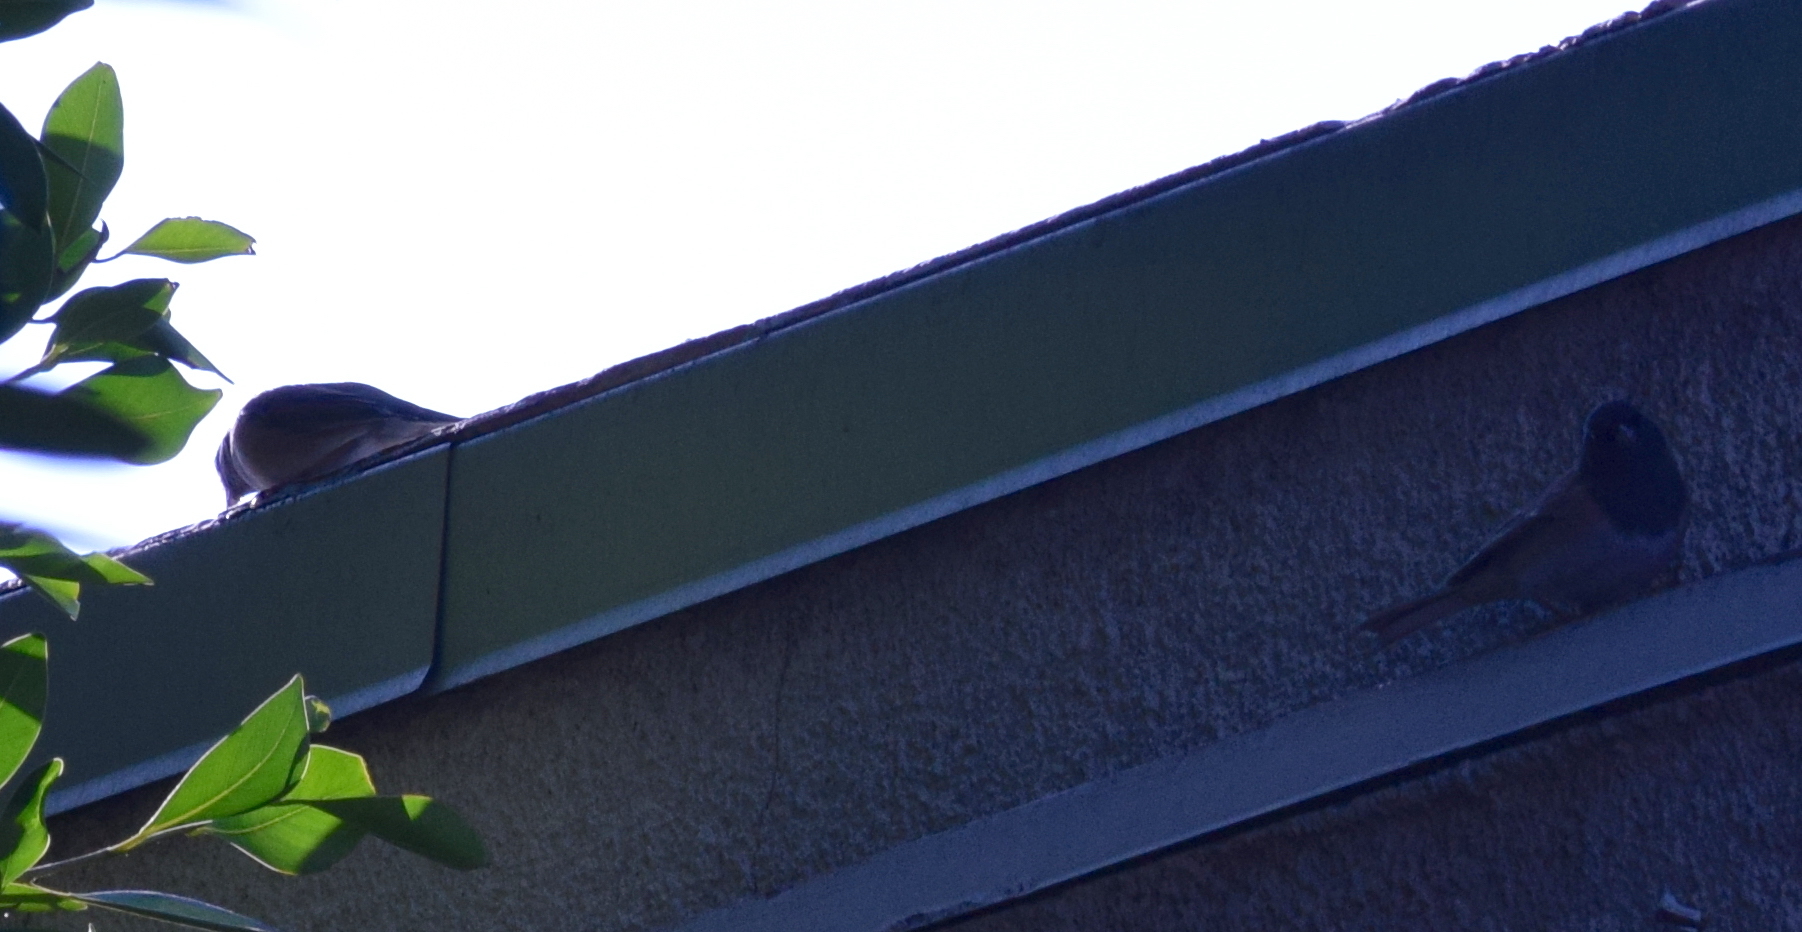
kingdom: Animalia
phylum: Chordata
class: Aves
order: Passeriformes
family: Passerellidae
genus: Junco
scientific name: Junco hyemalis
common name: Dark-eyed junco
